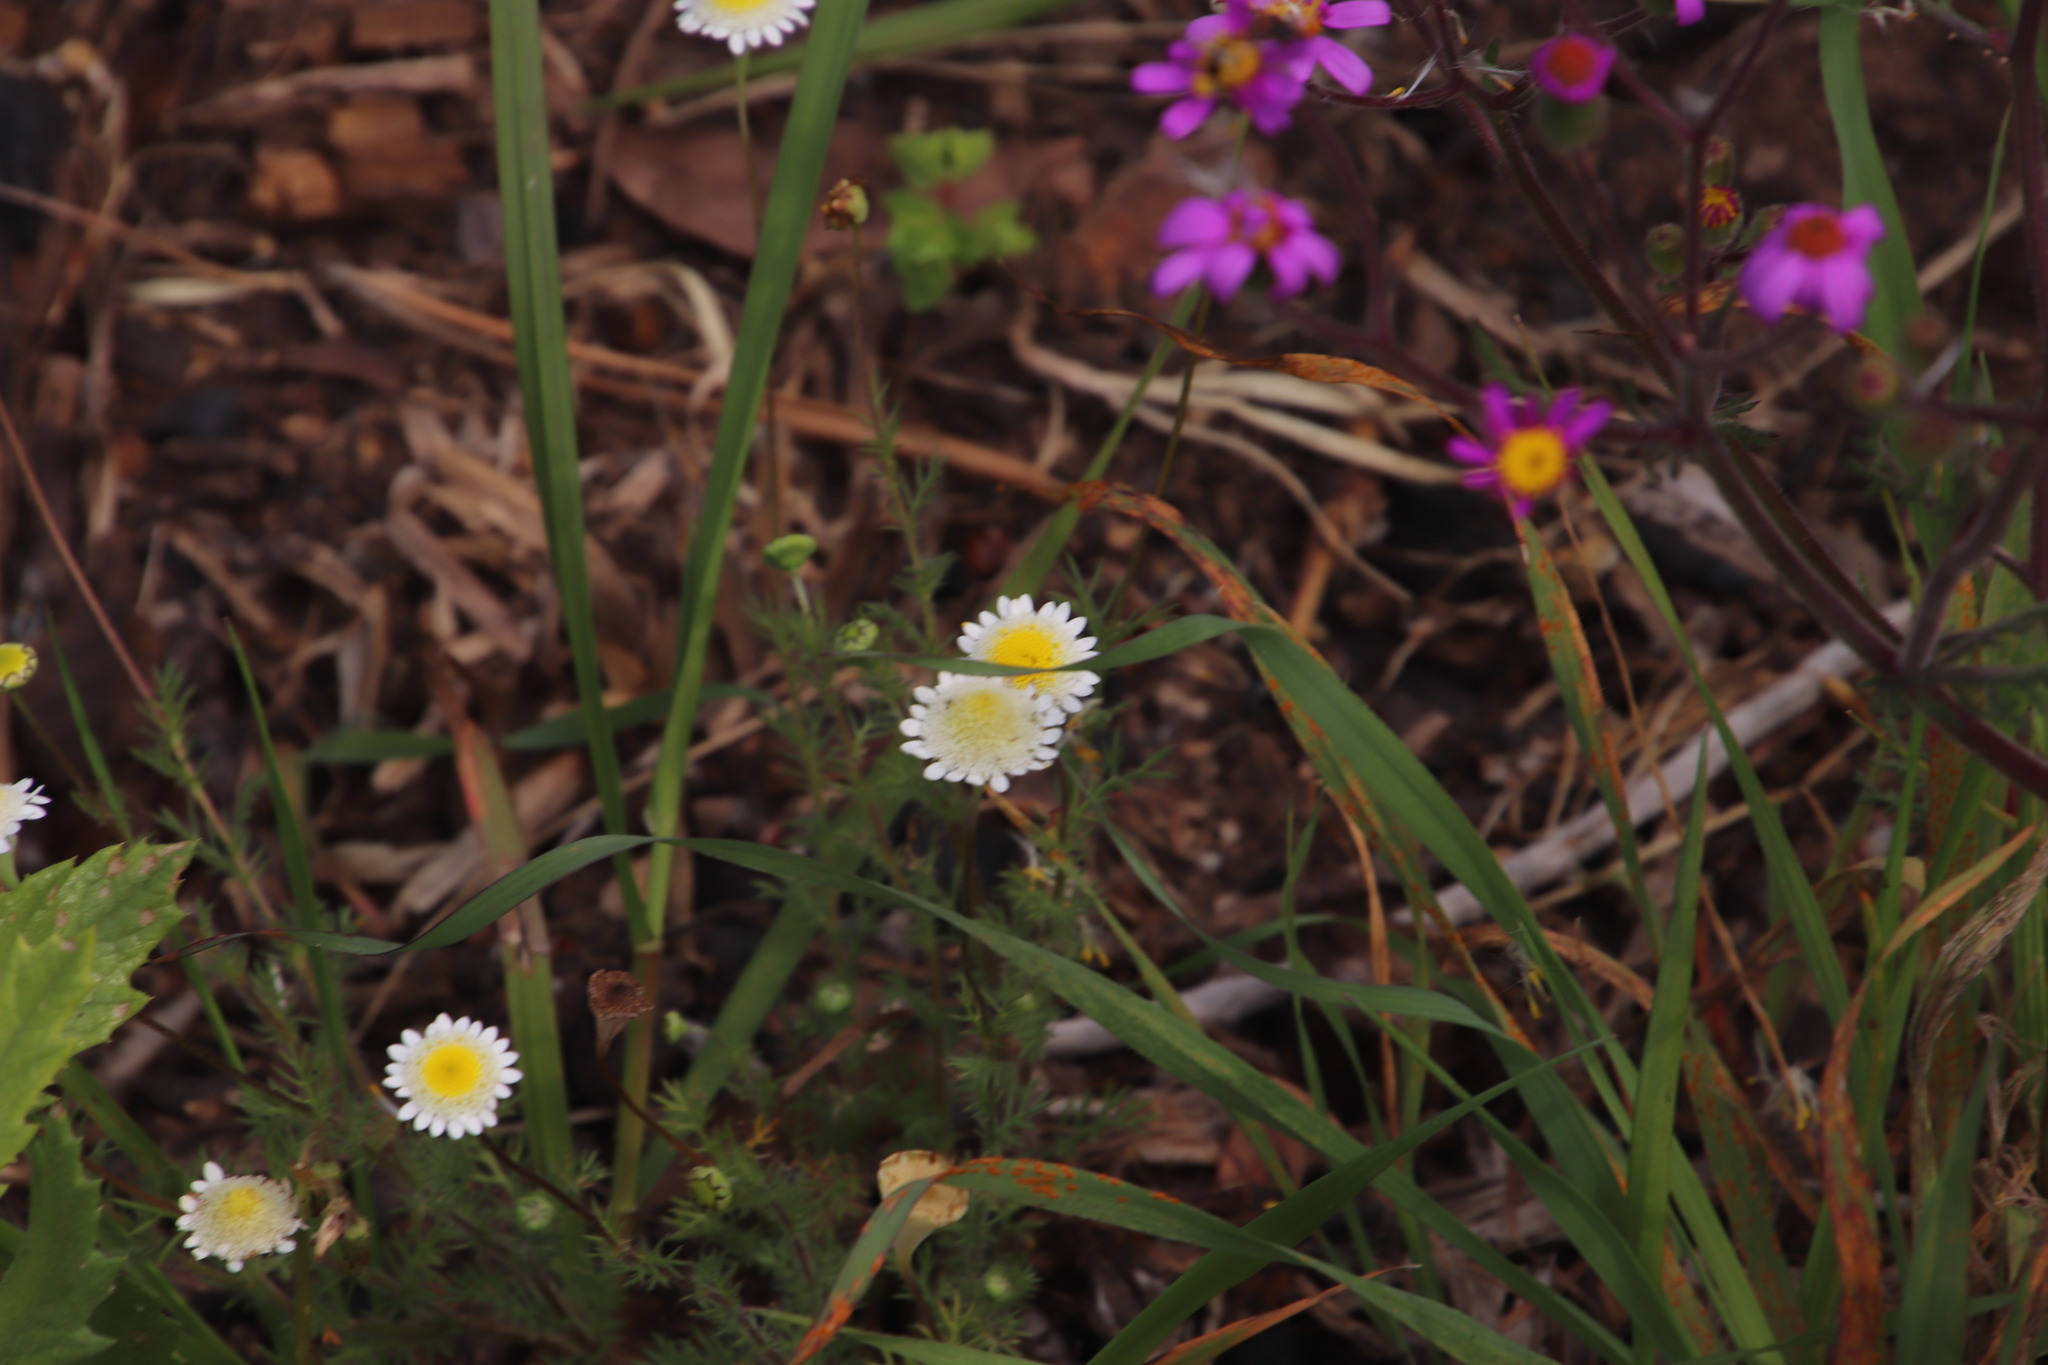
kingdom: Plantae
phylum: Tracheophyta
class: Magnoliopsida
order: Asterales
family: Asteraceae
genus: Cotula
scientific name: Cotula turbinata
